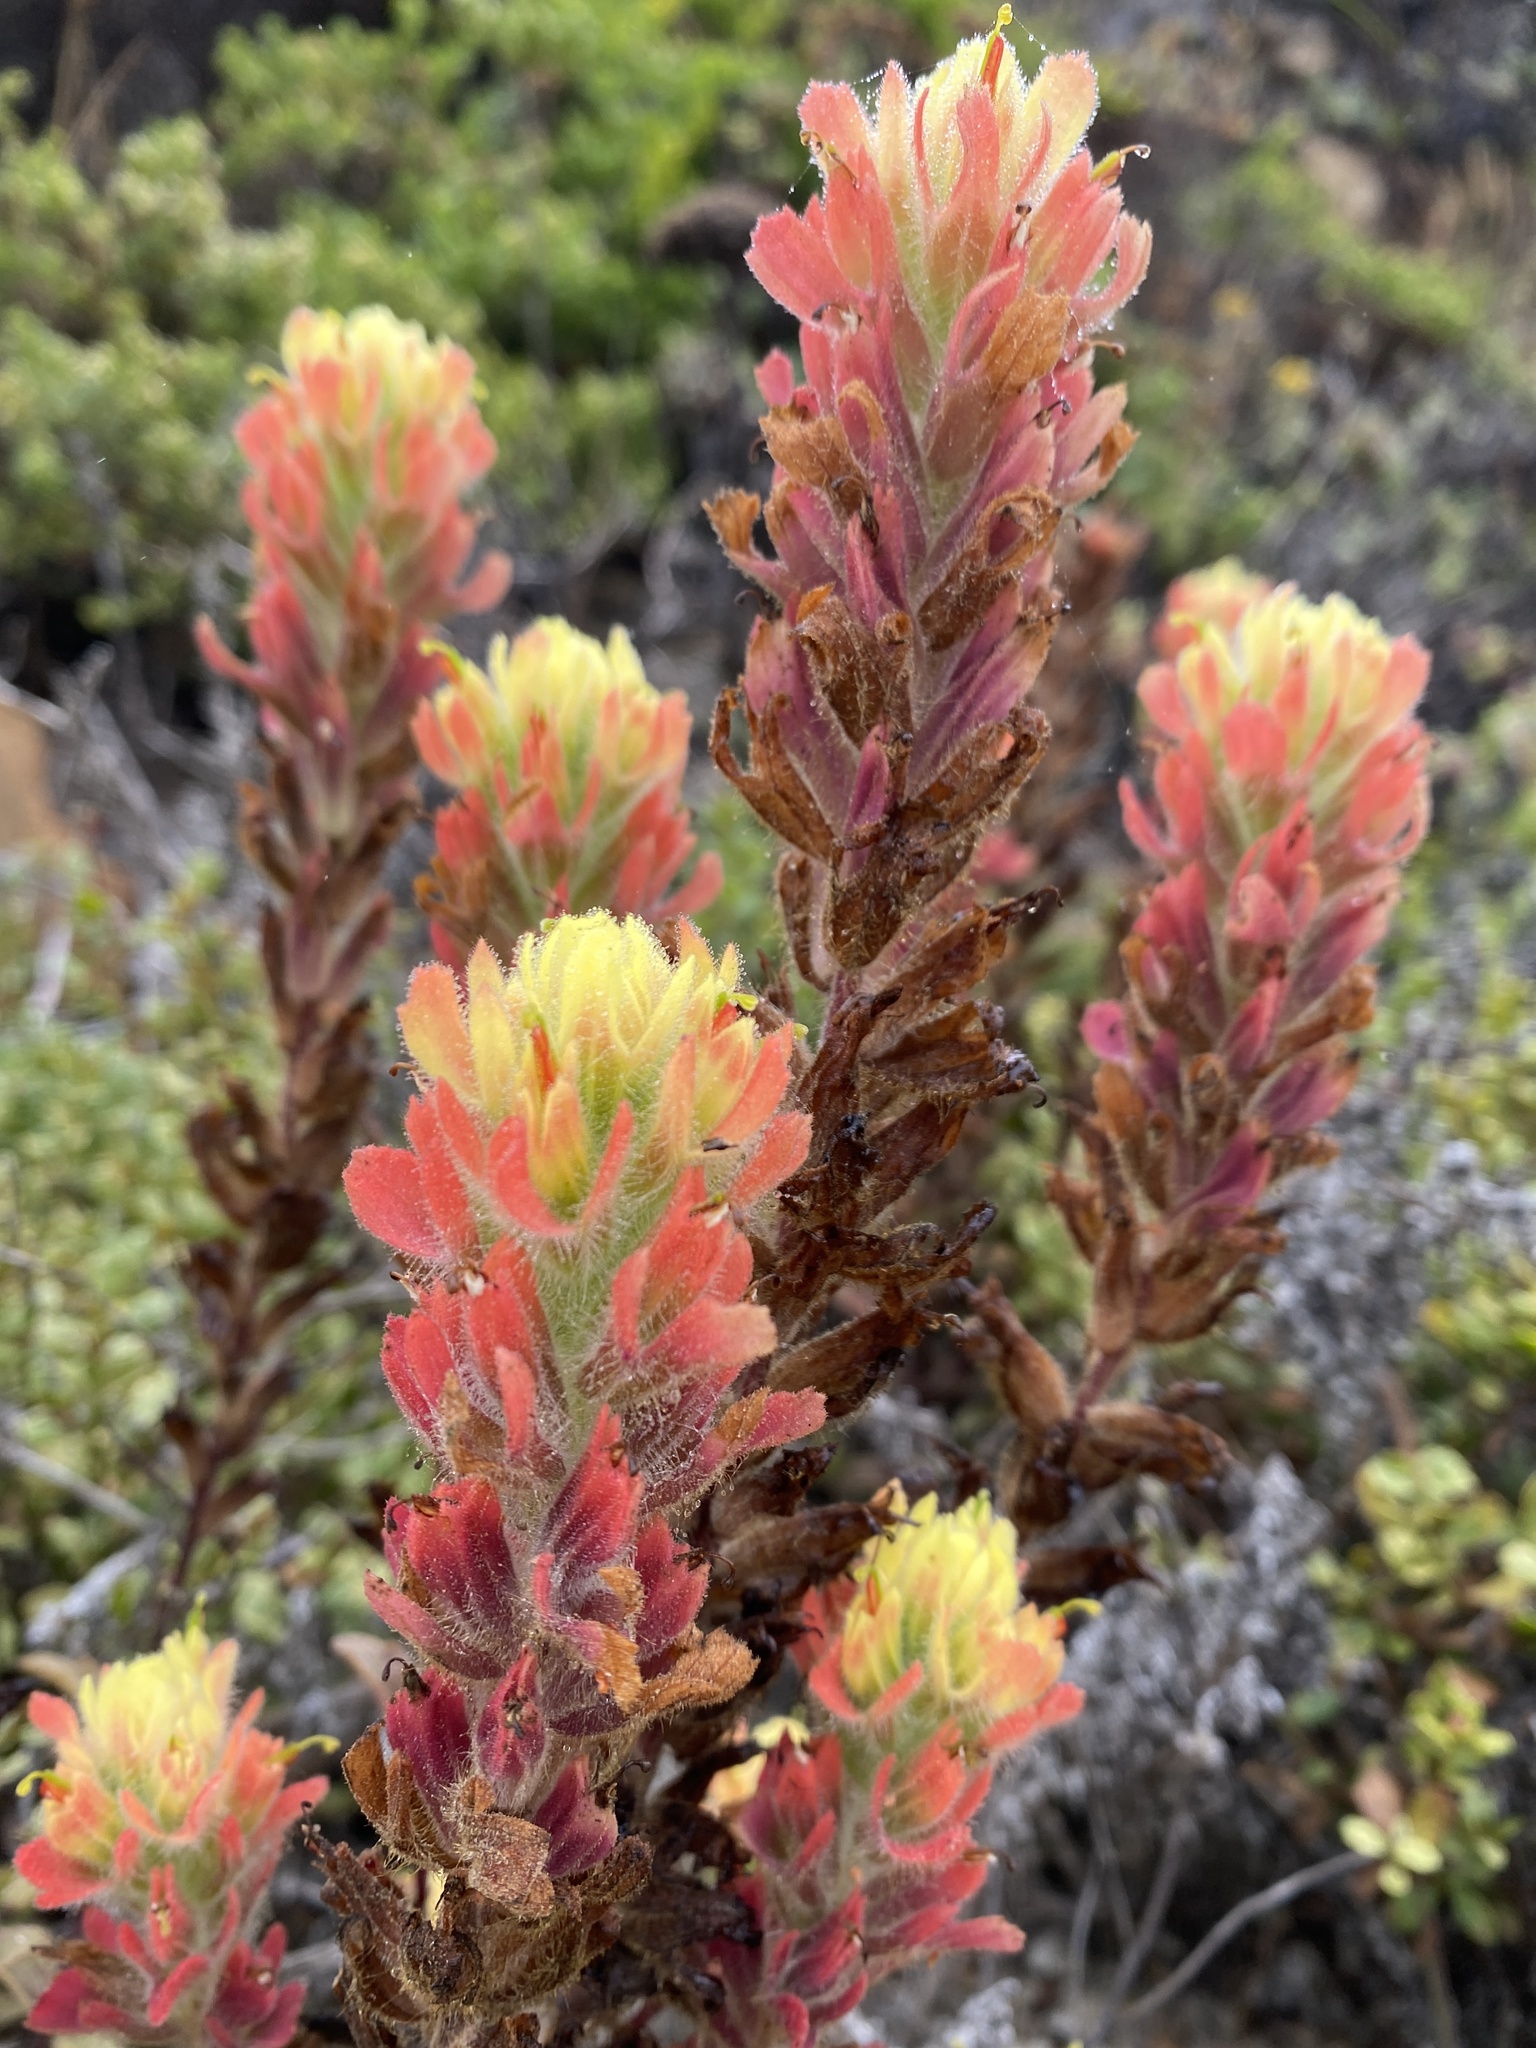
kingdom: Plantae
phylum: Tracheophyta
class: Magnoliopsida
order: Lamiales
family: Orobanchaceae
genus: Castilleja
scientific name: Castilleja wightii
